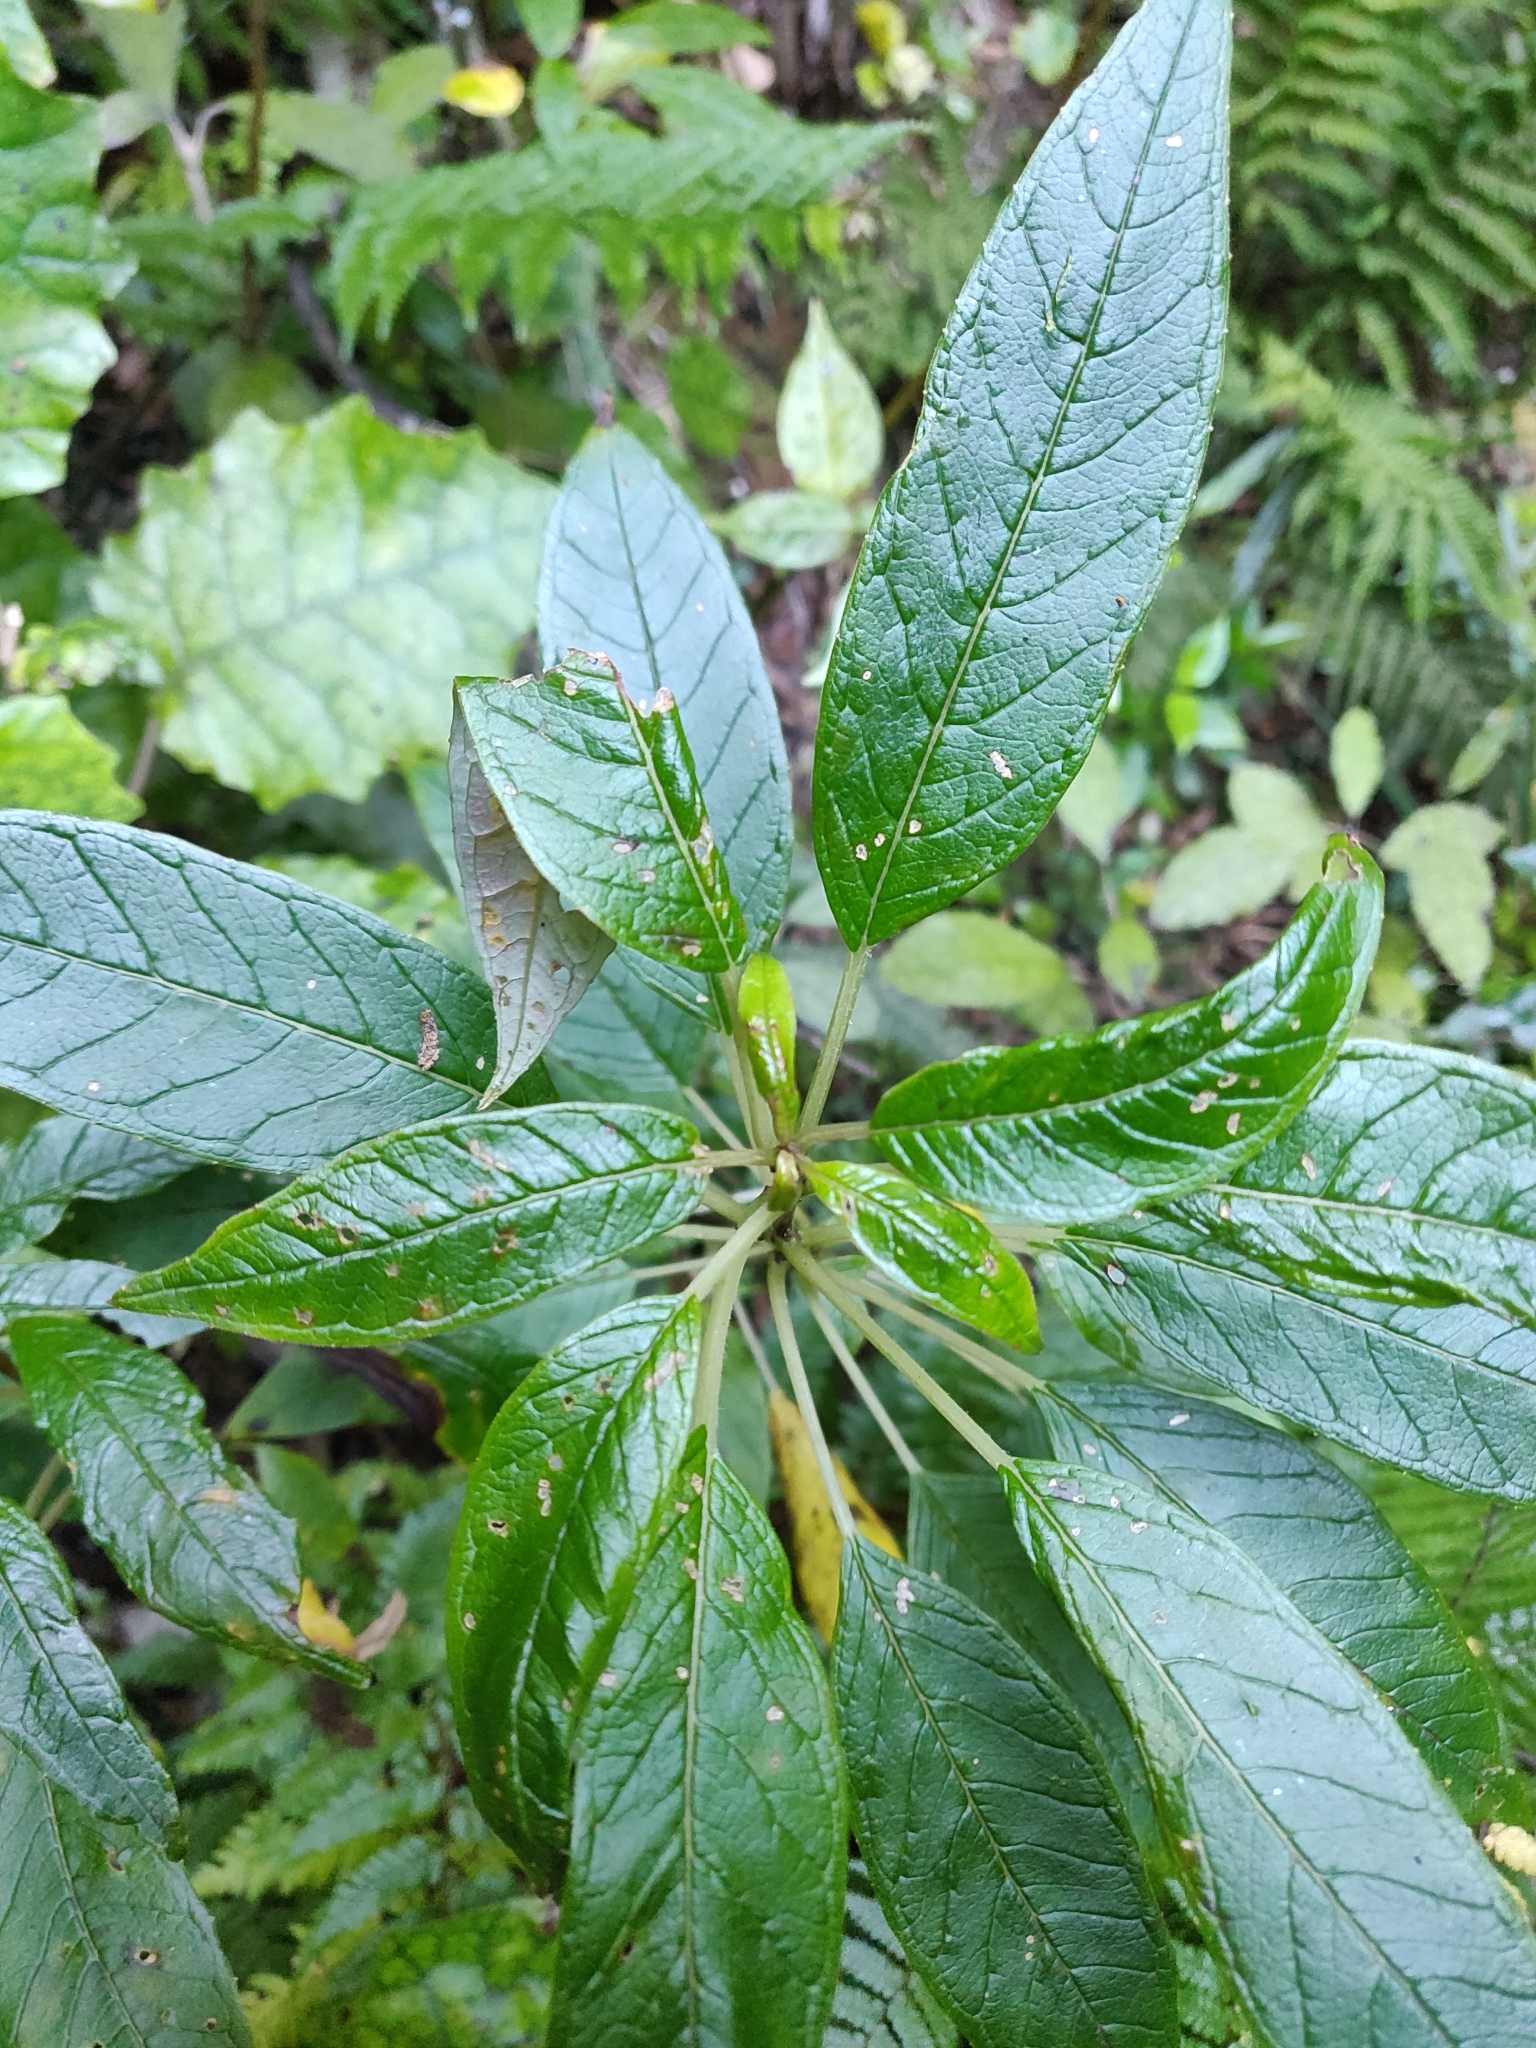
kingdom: Plantae
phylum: Tracheophyta
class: Magnoliopsida
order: Myrtales
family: Onagraceae
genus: Fuchsia
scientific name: Fuchsia excorticata
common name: Tree fuchsia
